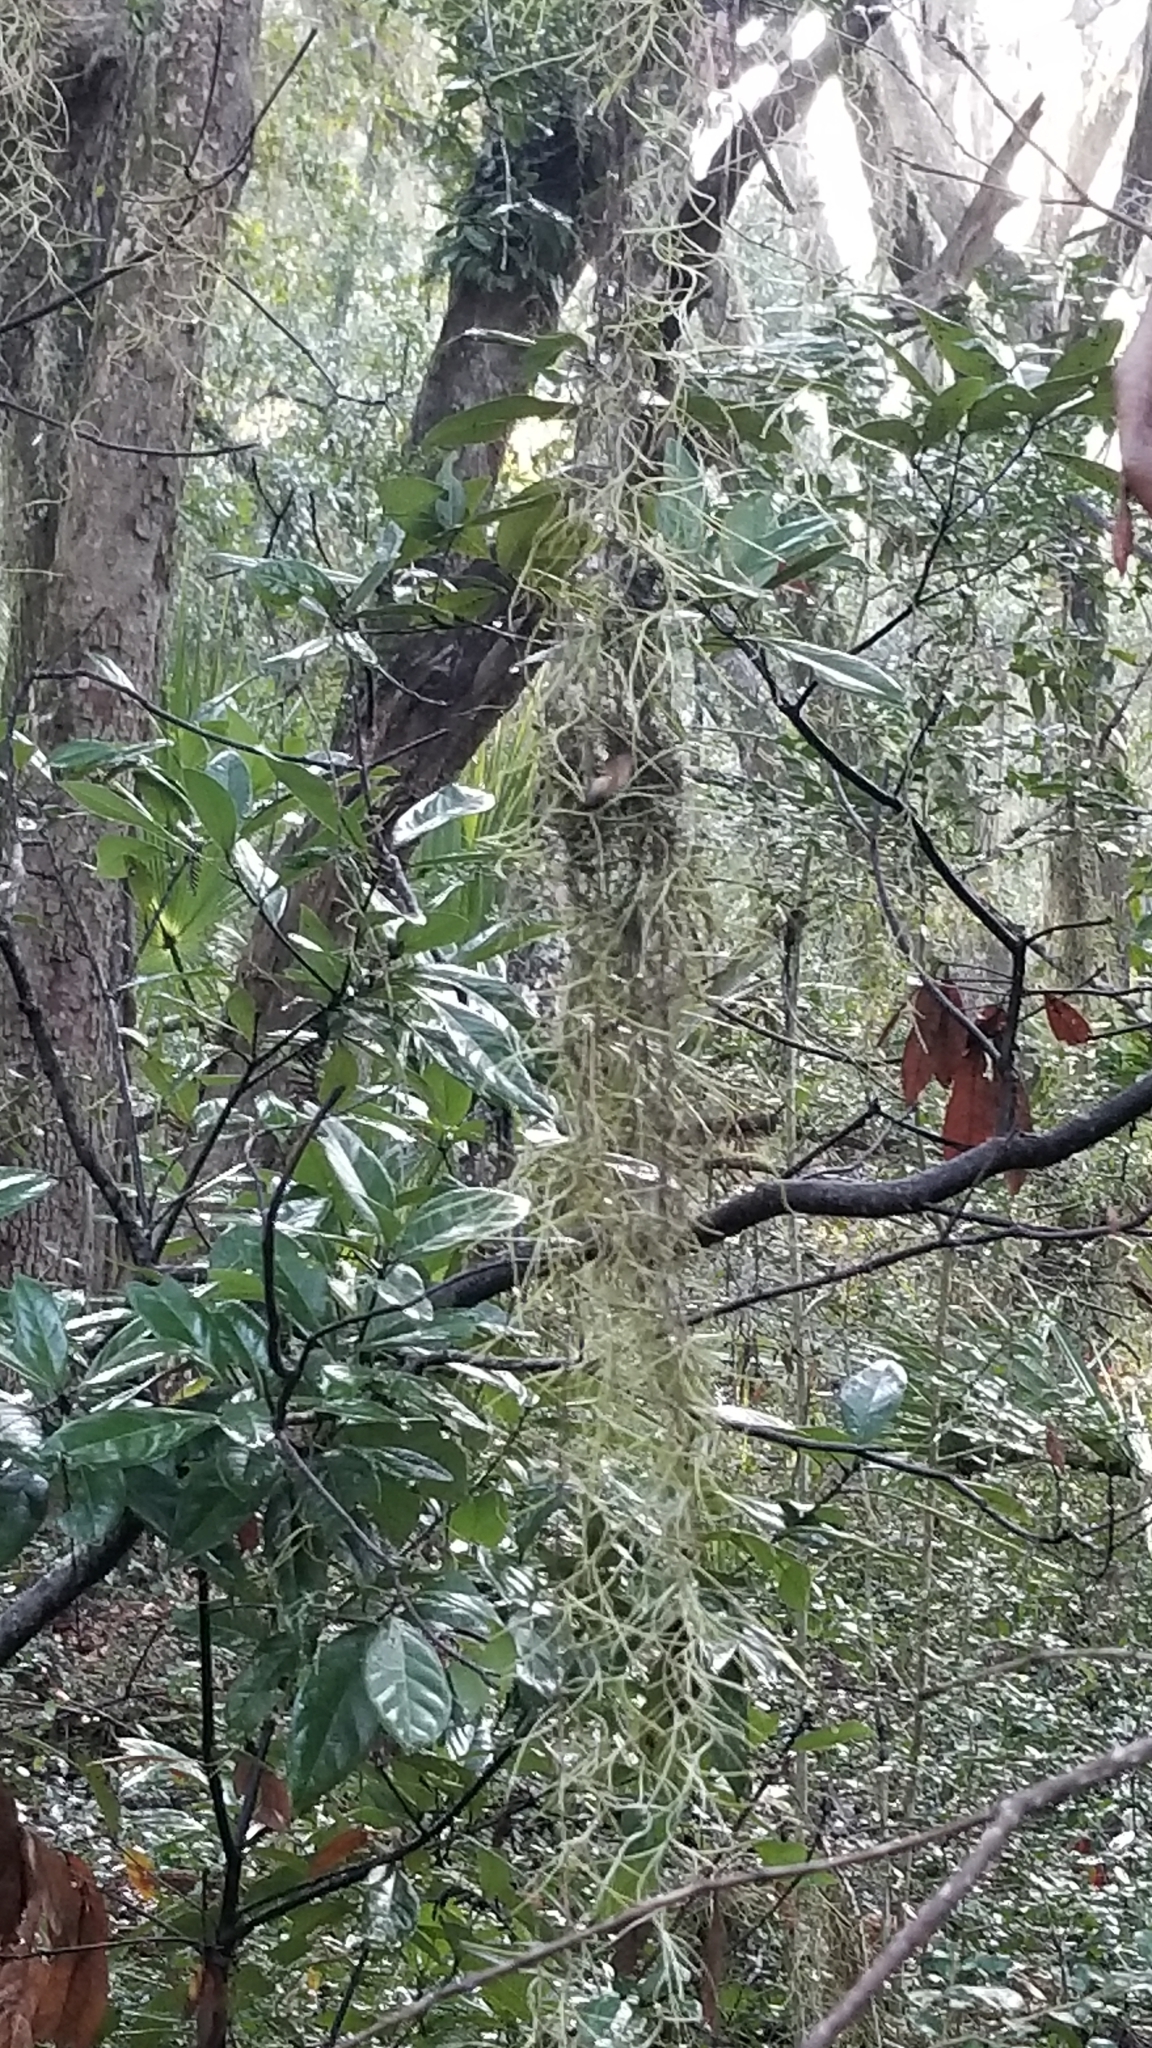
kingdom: Plantae
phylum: Tracheophyta
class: Liliopsida
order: Poales
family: Bromeliaceae
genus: Tillandsia
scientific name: Tillandsia usneoides
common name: Spanish moss
